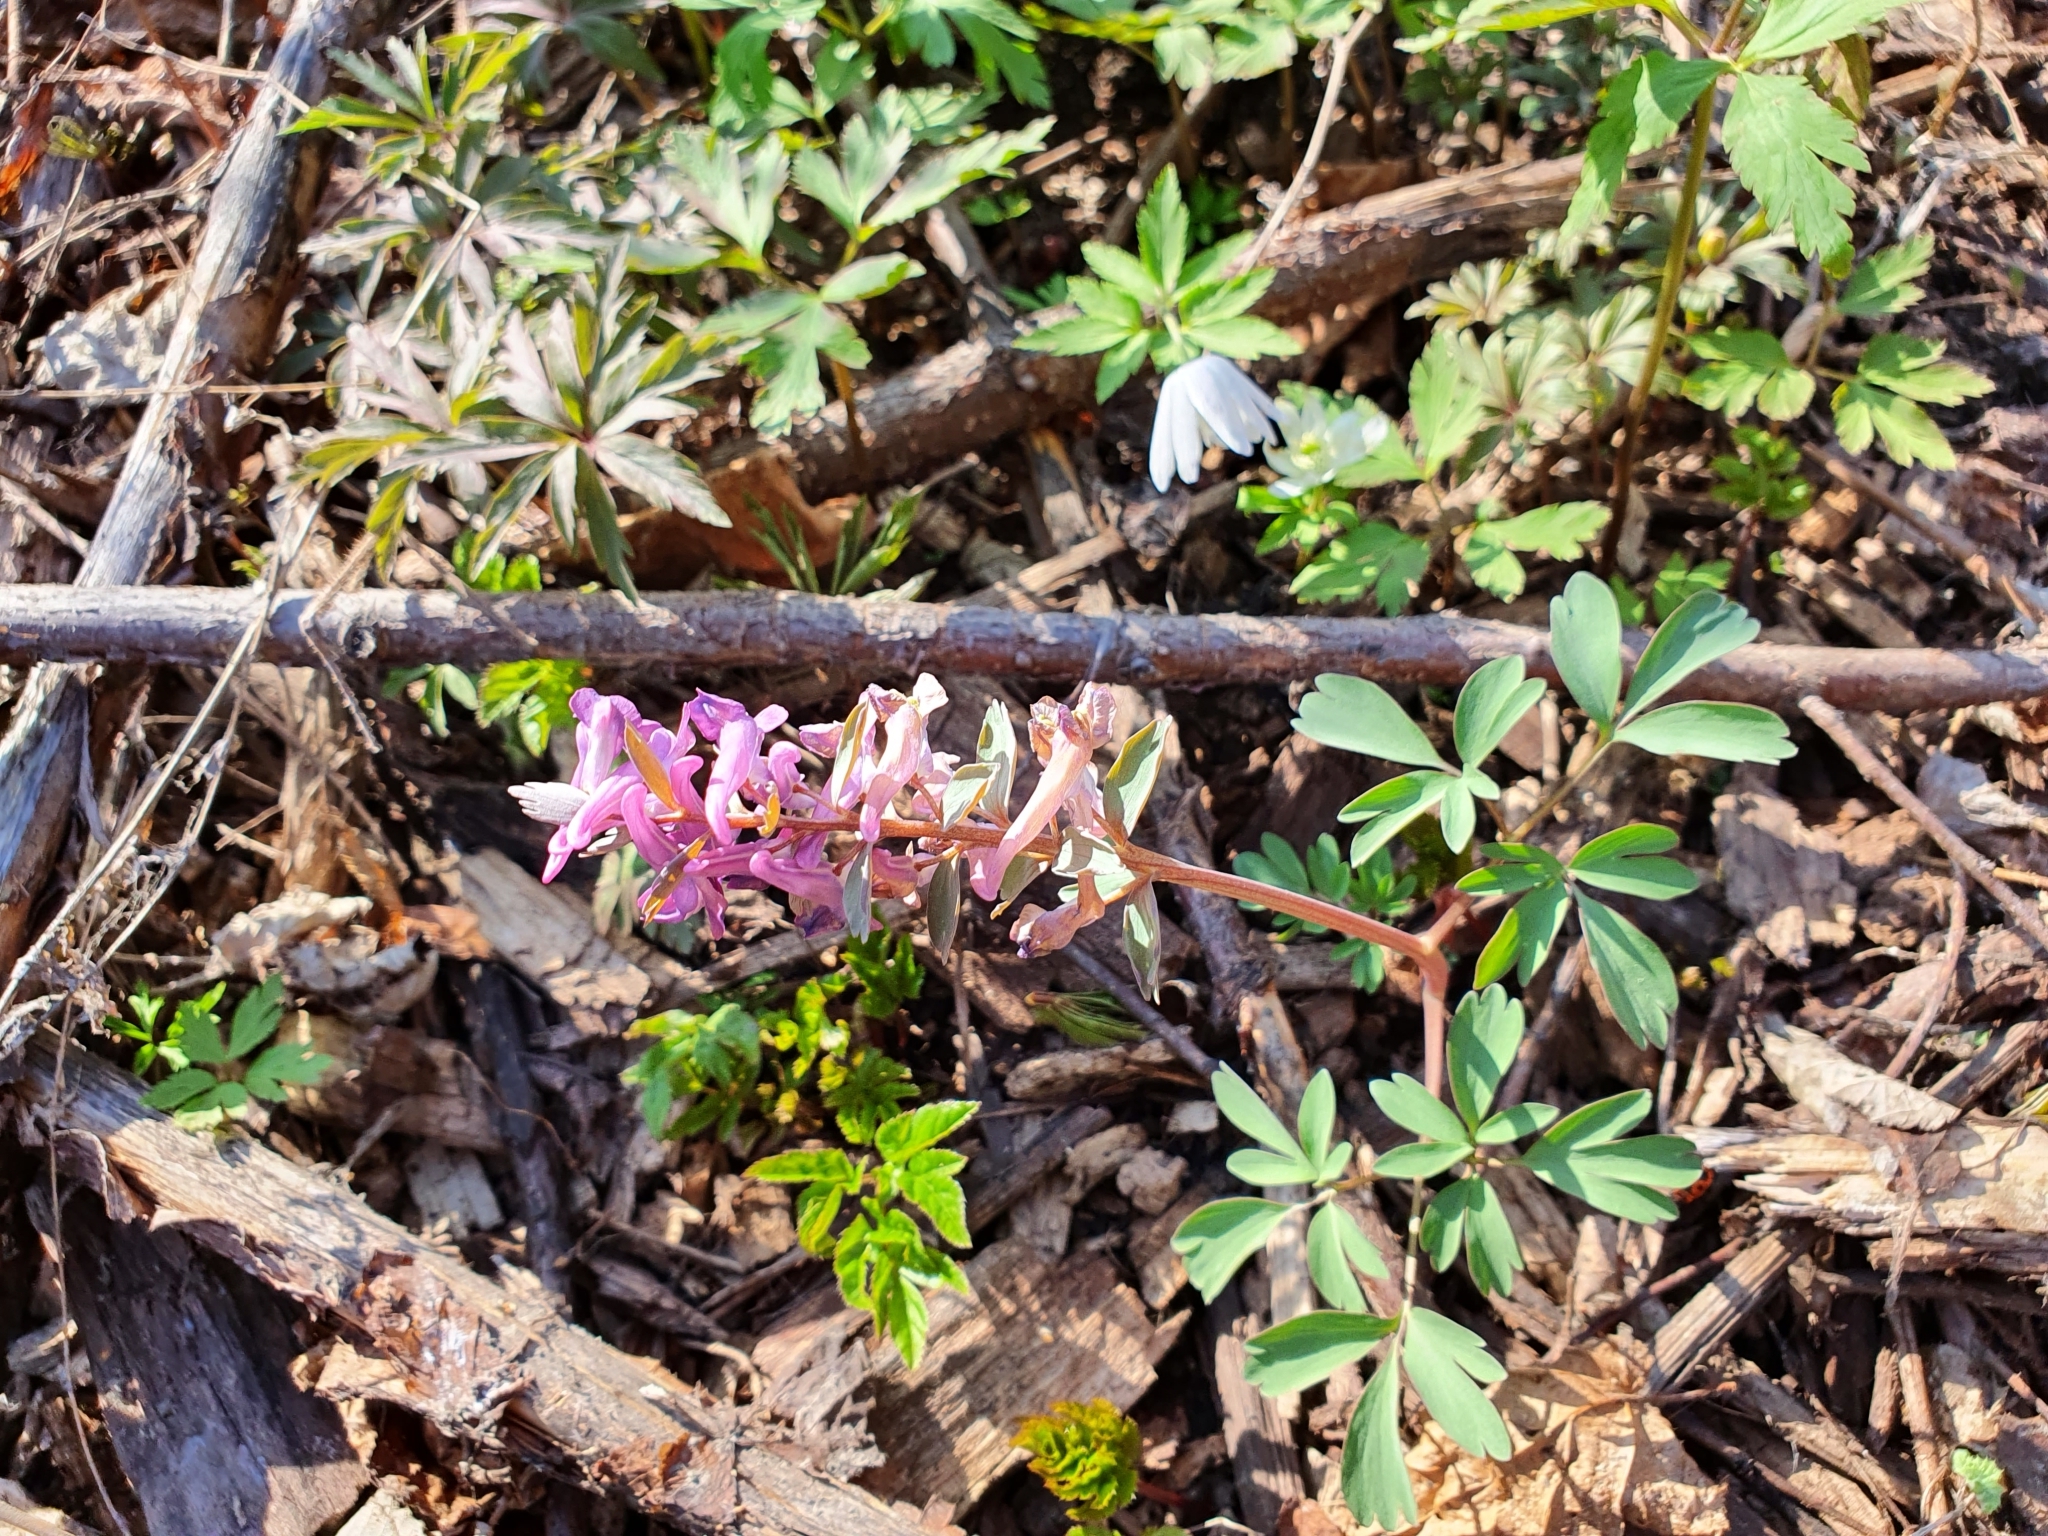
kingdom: Plantae
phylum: Tracheophyta
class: Magnoliopsida
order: Ranunculales
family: Papaveraceae
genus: Corydalis
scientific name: Corydalis solida
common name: Bird-in-a-bush
